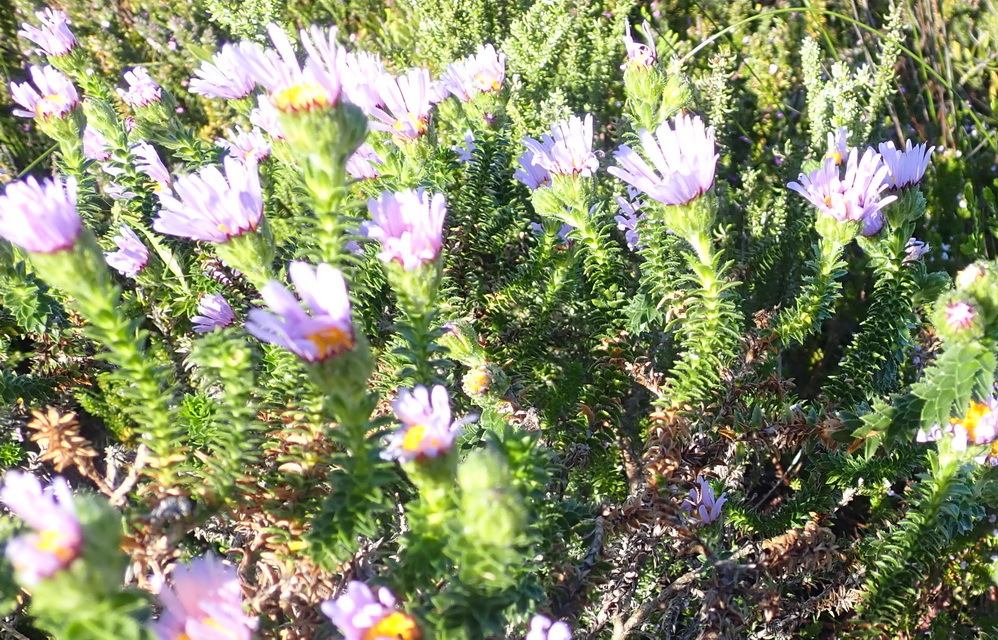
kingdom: Plantae
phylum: Tracheophyta
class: Magnoliopsida
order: Asterales
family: Asteraceae
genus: Felicia
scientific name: Felicia echinata
